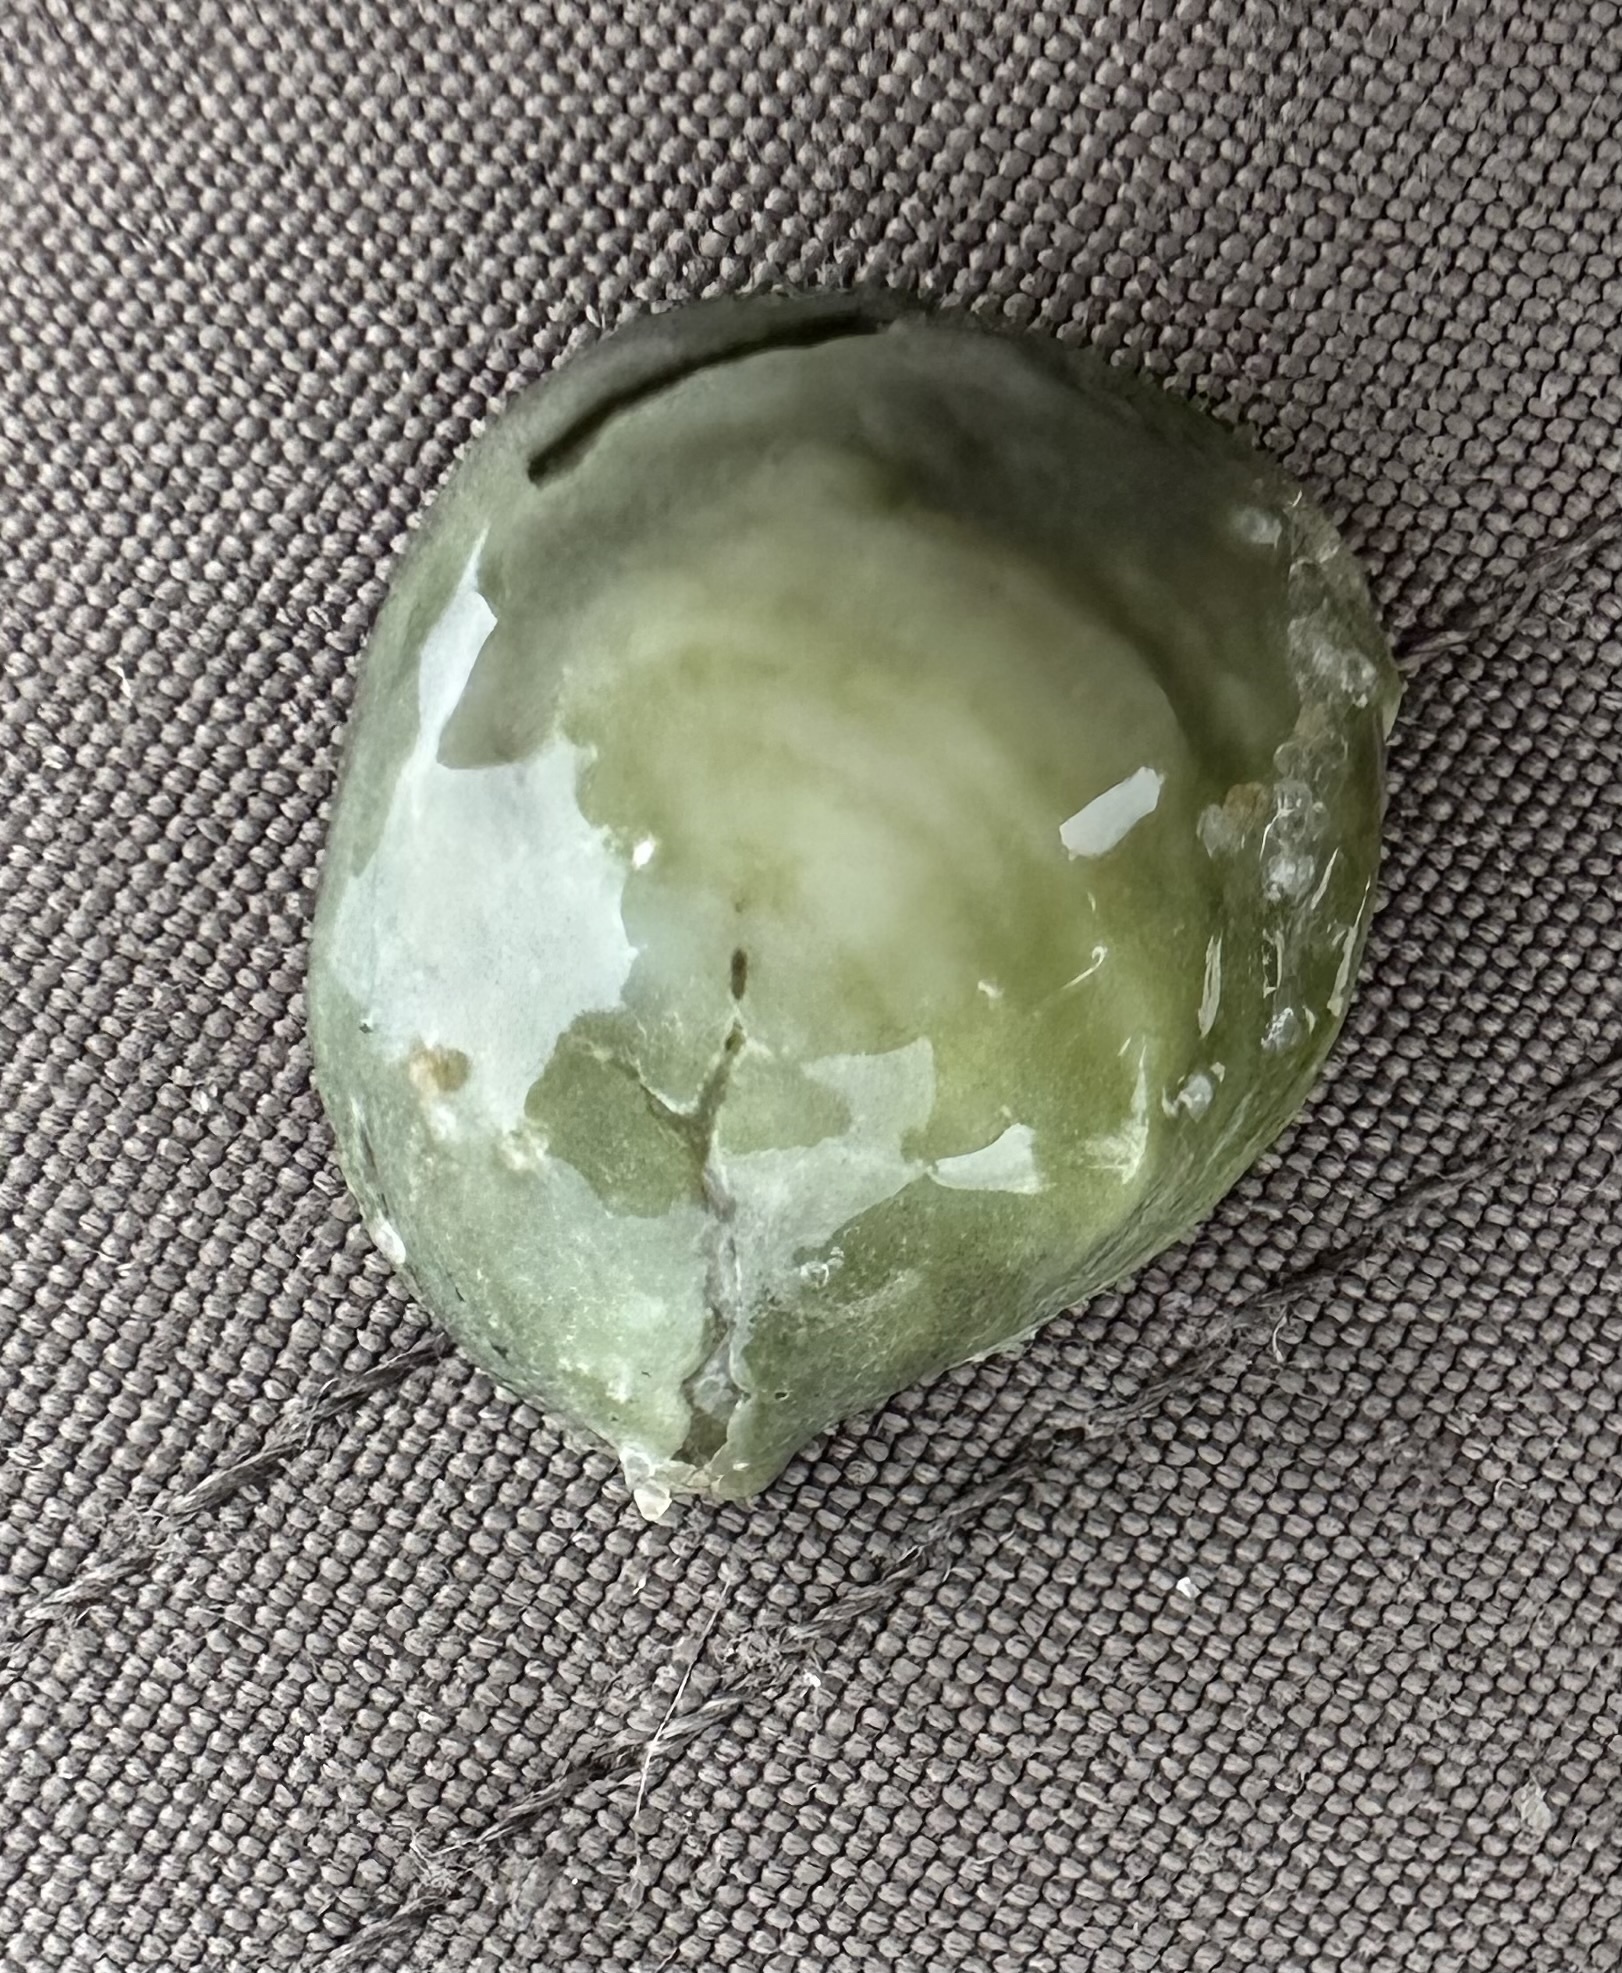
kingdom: Animalia
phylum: Mollusca
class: Gastropoda
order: Littorinimorpha
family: Calyptraeidae
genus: Crepidula
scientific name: Crepidula fornicata
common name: Slipper limpet
